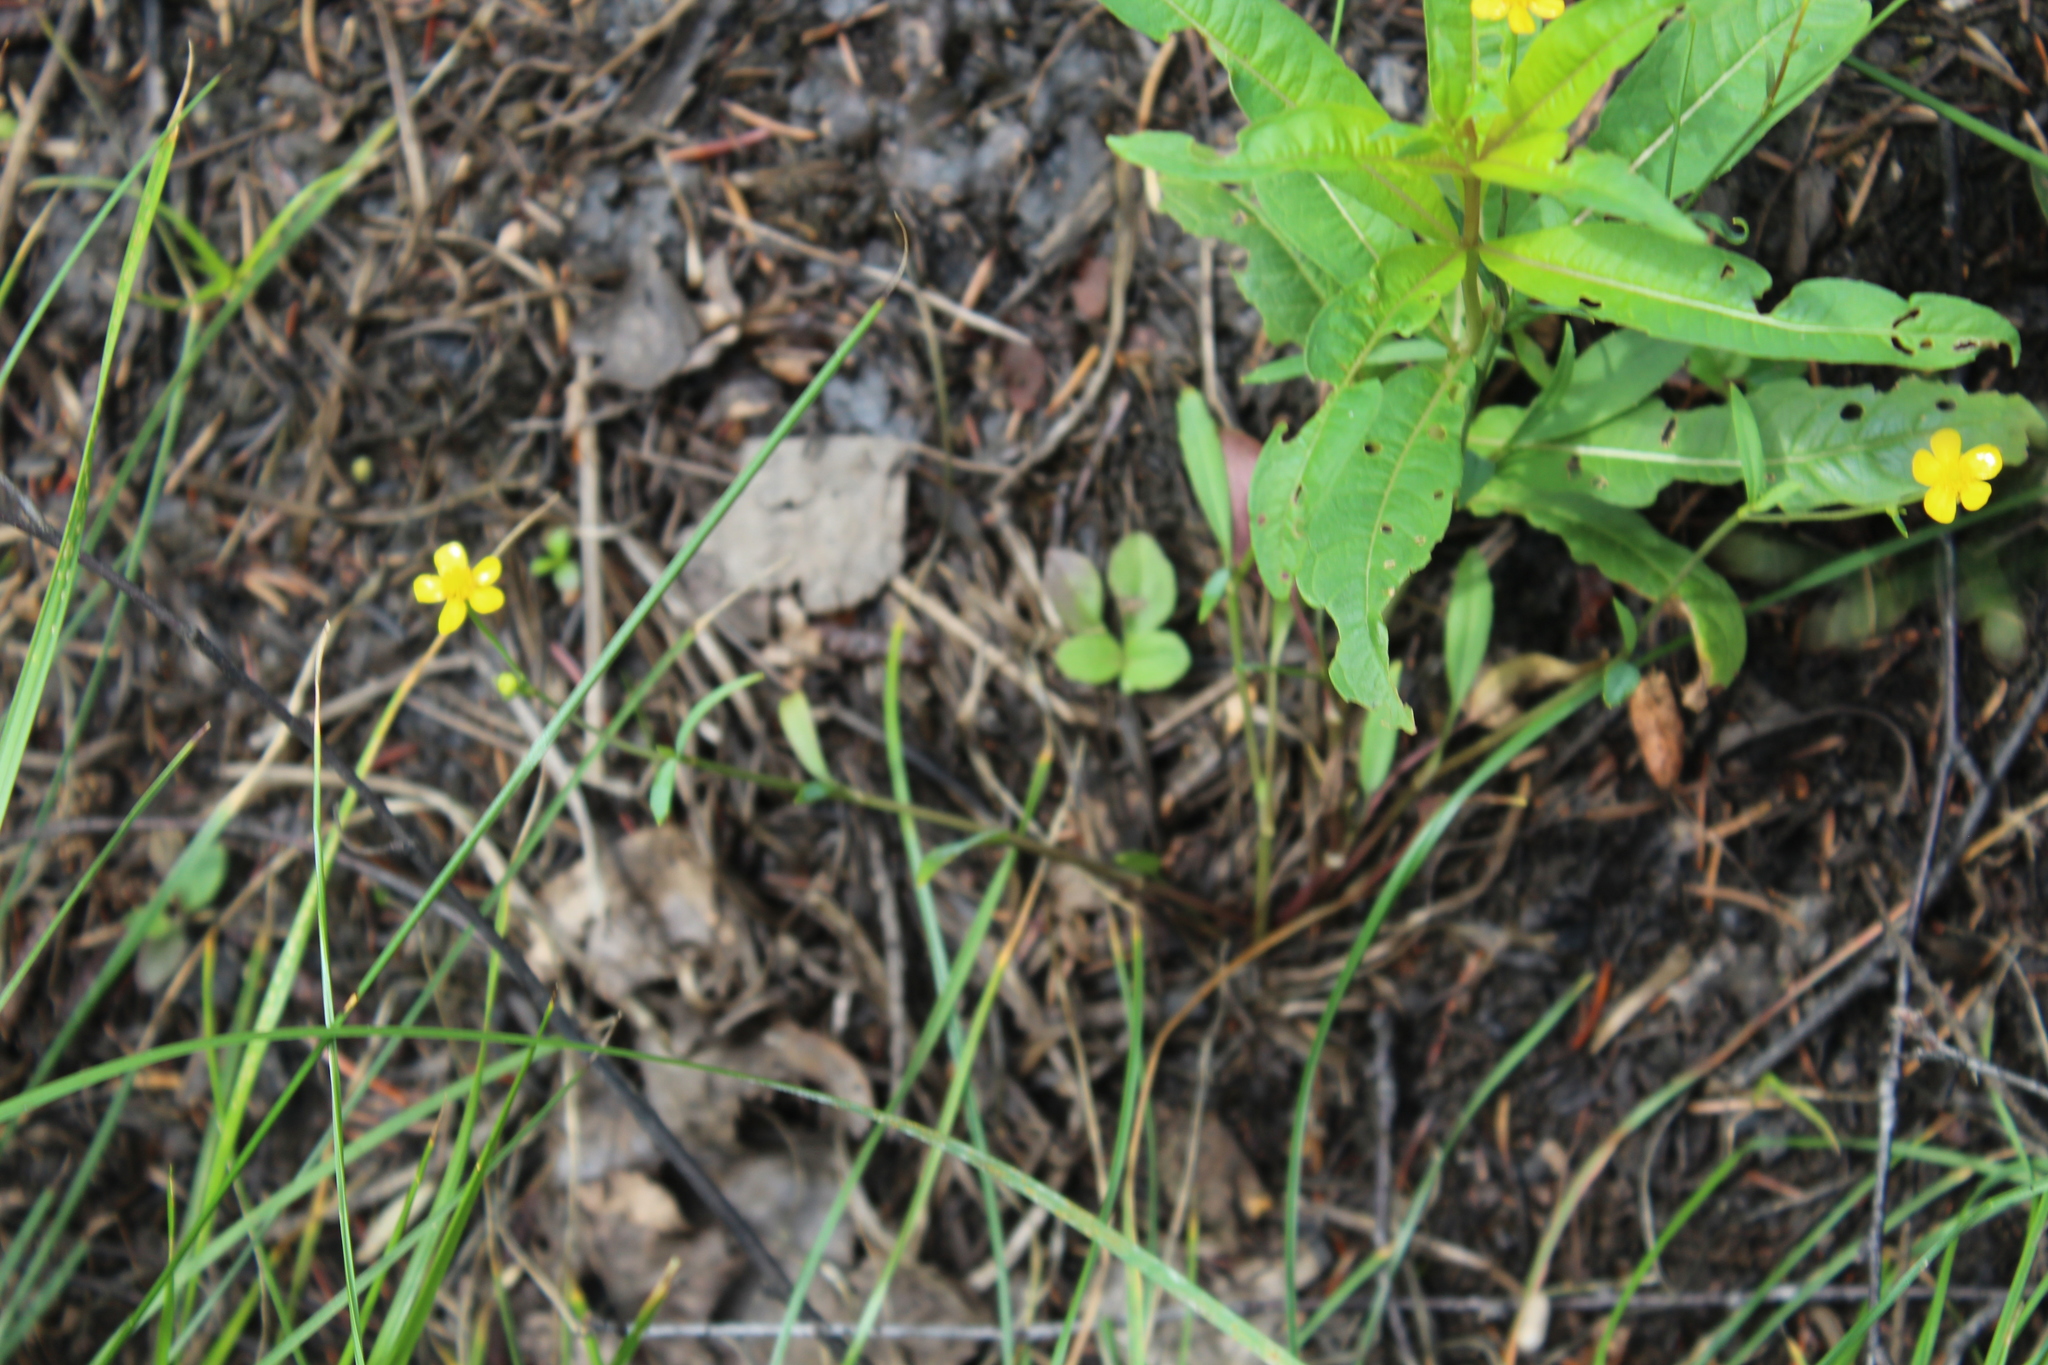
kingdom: Plantae
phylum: Tracheophyta
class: Magnoliopsida
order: Ranunculales
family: Ranunculaceae
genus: Ranunculus
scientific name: Ranunculus flammula
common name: Lesser spearwort
